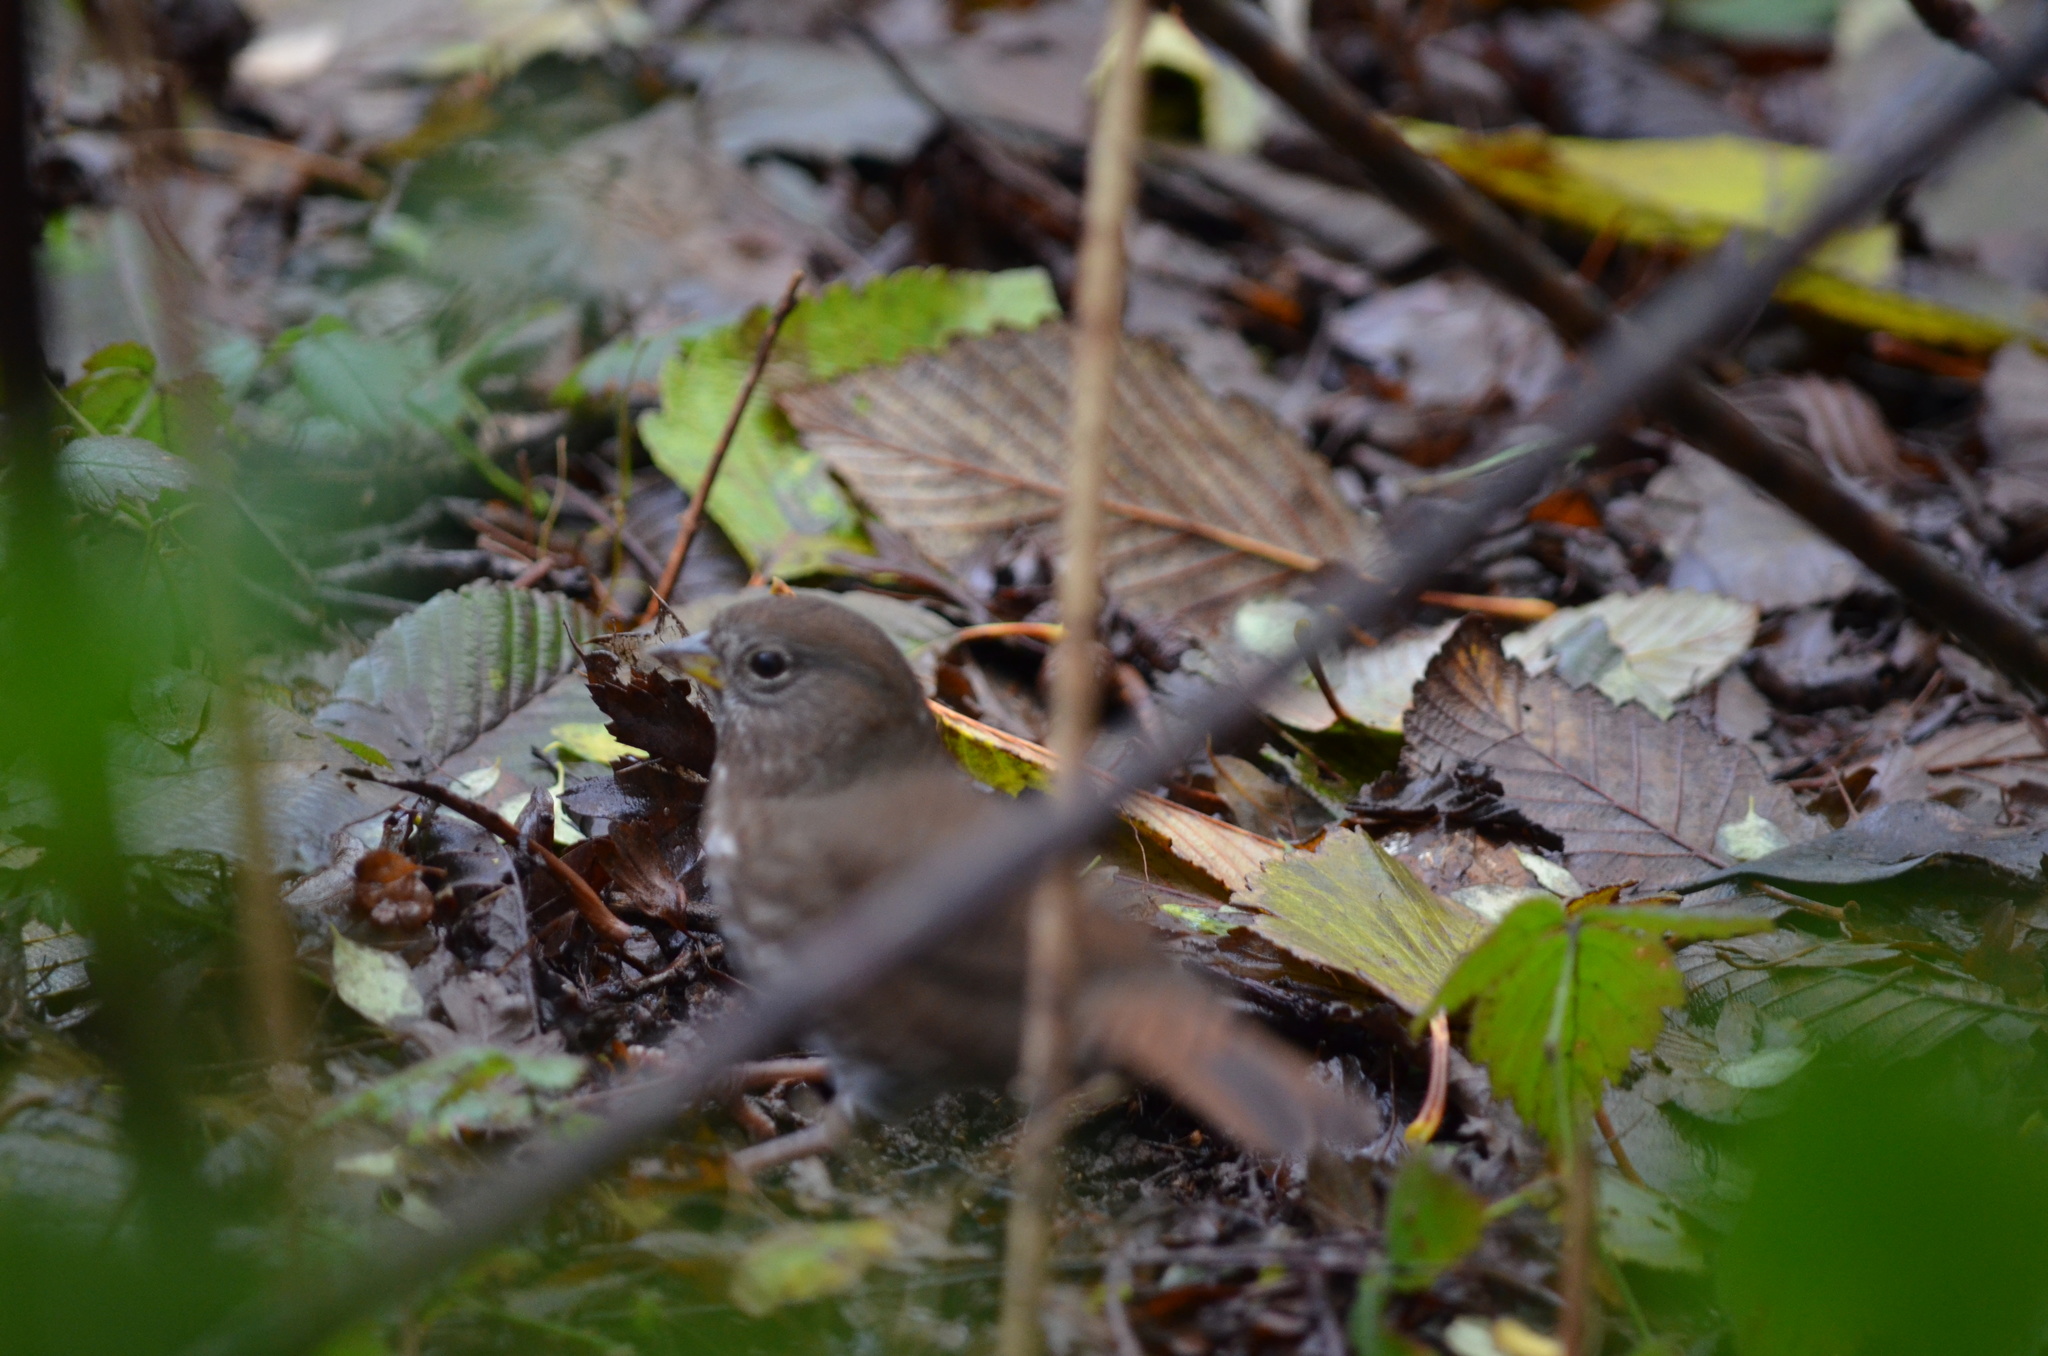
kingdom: Animalia
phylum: Chordata
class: Aves
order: Passeriformes
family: Passerellidae
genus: Passerella
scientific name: Passerella iliaca
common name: Fox sparrow
